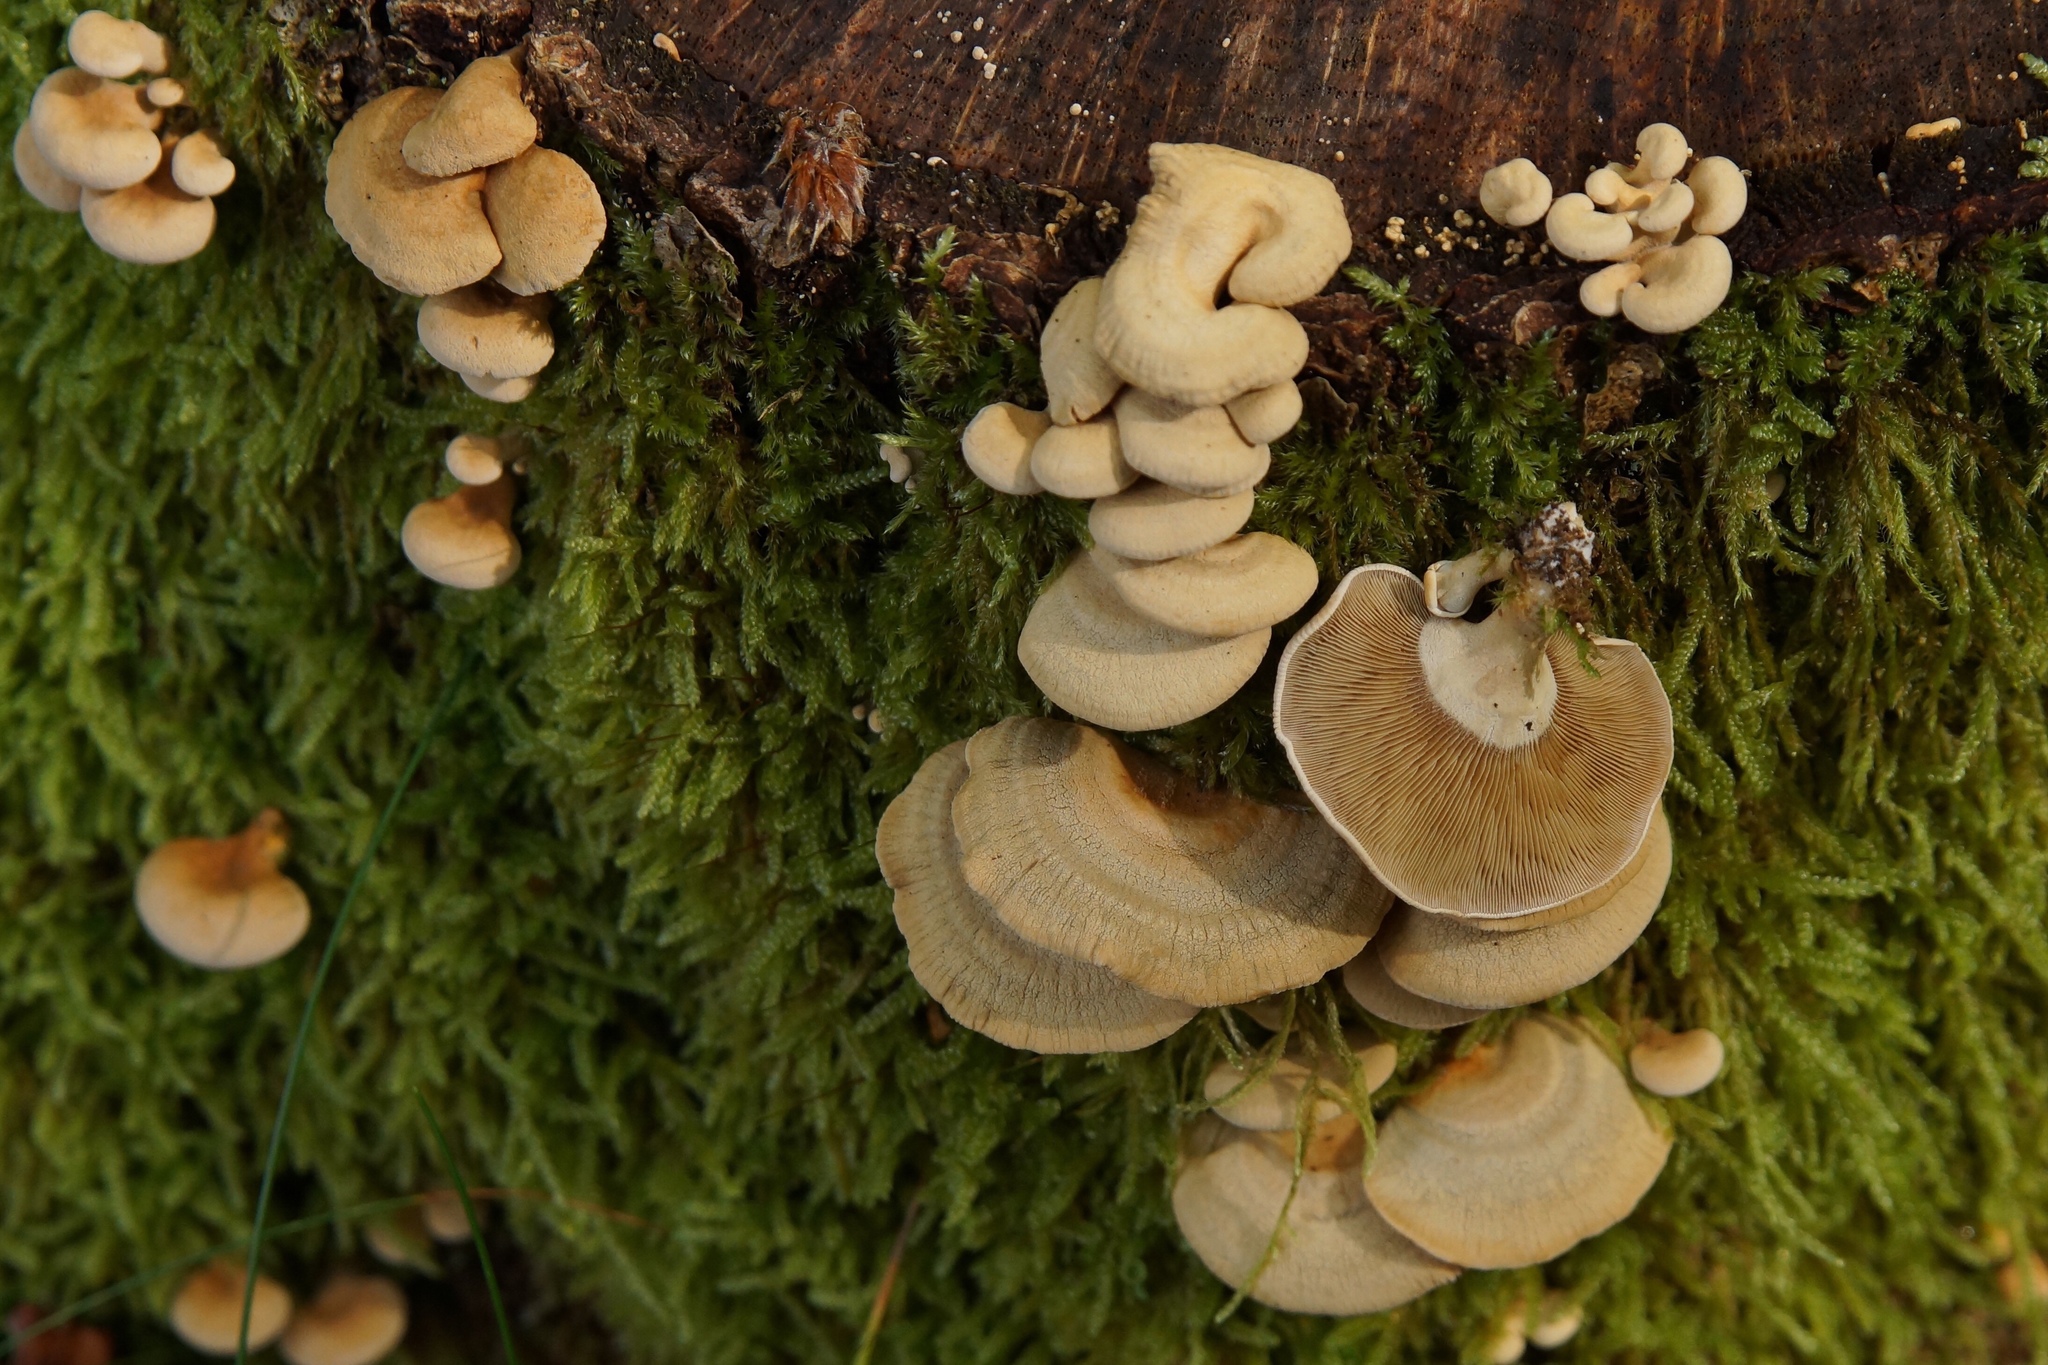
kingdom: Fungi
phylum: Basidiomycota
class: Agaricomycetes
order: Agaricales
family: Mycenaceae
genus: Panellus
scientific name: Panellus stipticus
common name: Bitter oysterling
